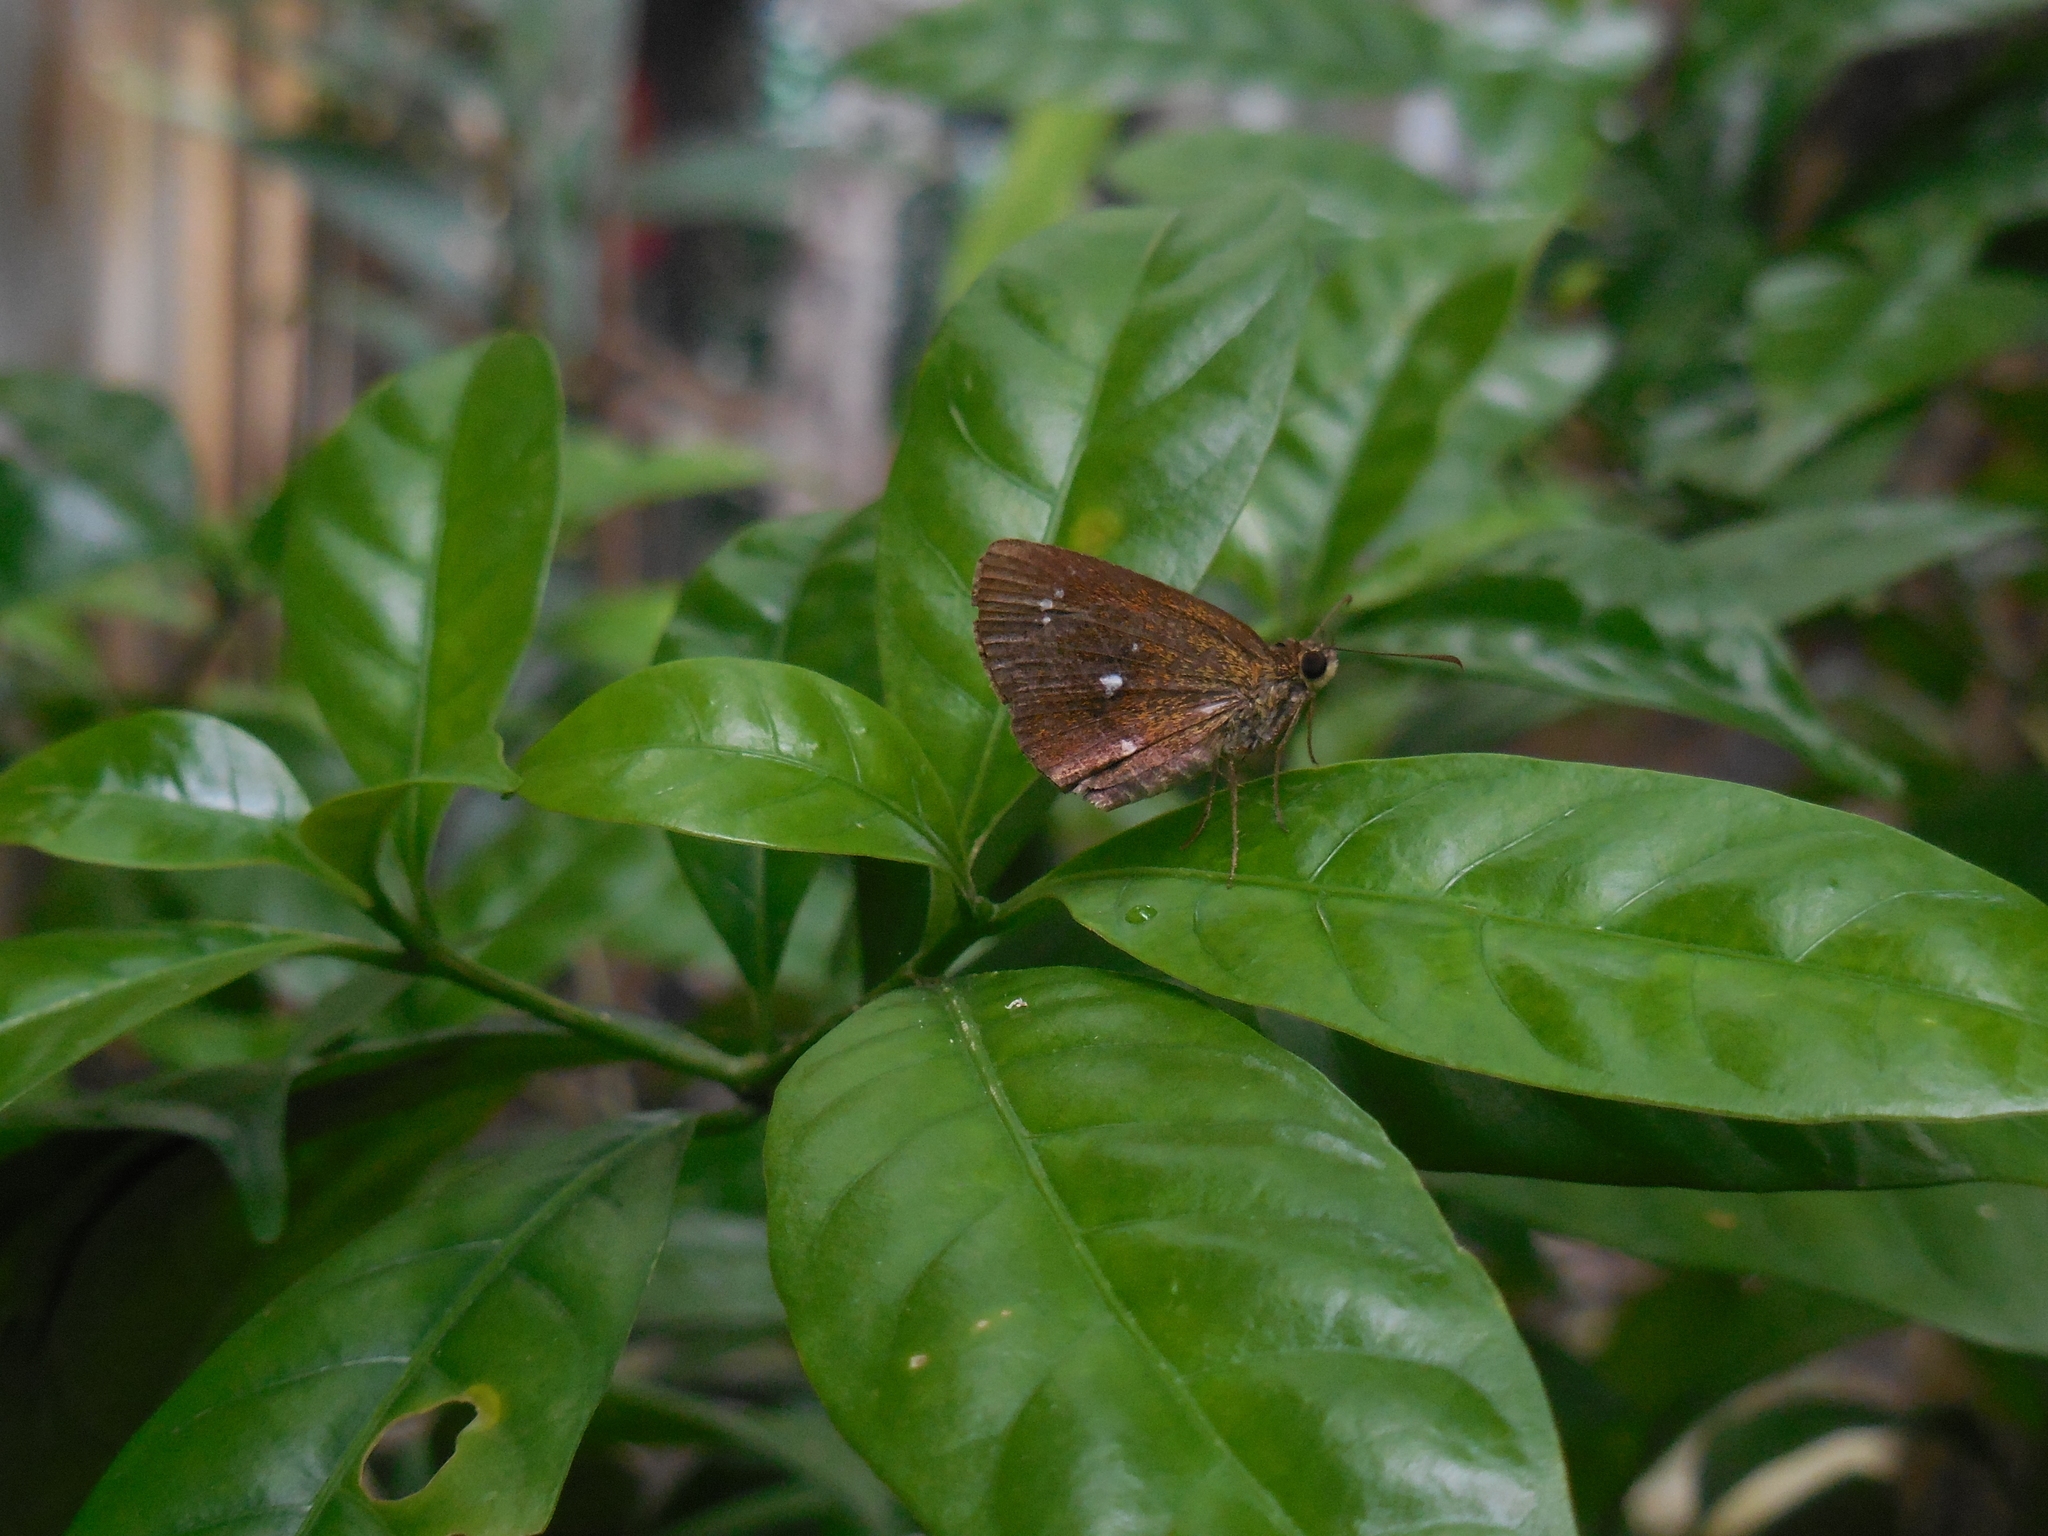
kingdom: Animalia
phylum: Arthropoda
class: Insecta
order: Lepidoptera
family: Hesperiidae
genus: Iambrix
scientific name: Iambrix salsala
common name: Chestnut bob
